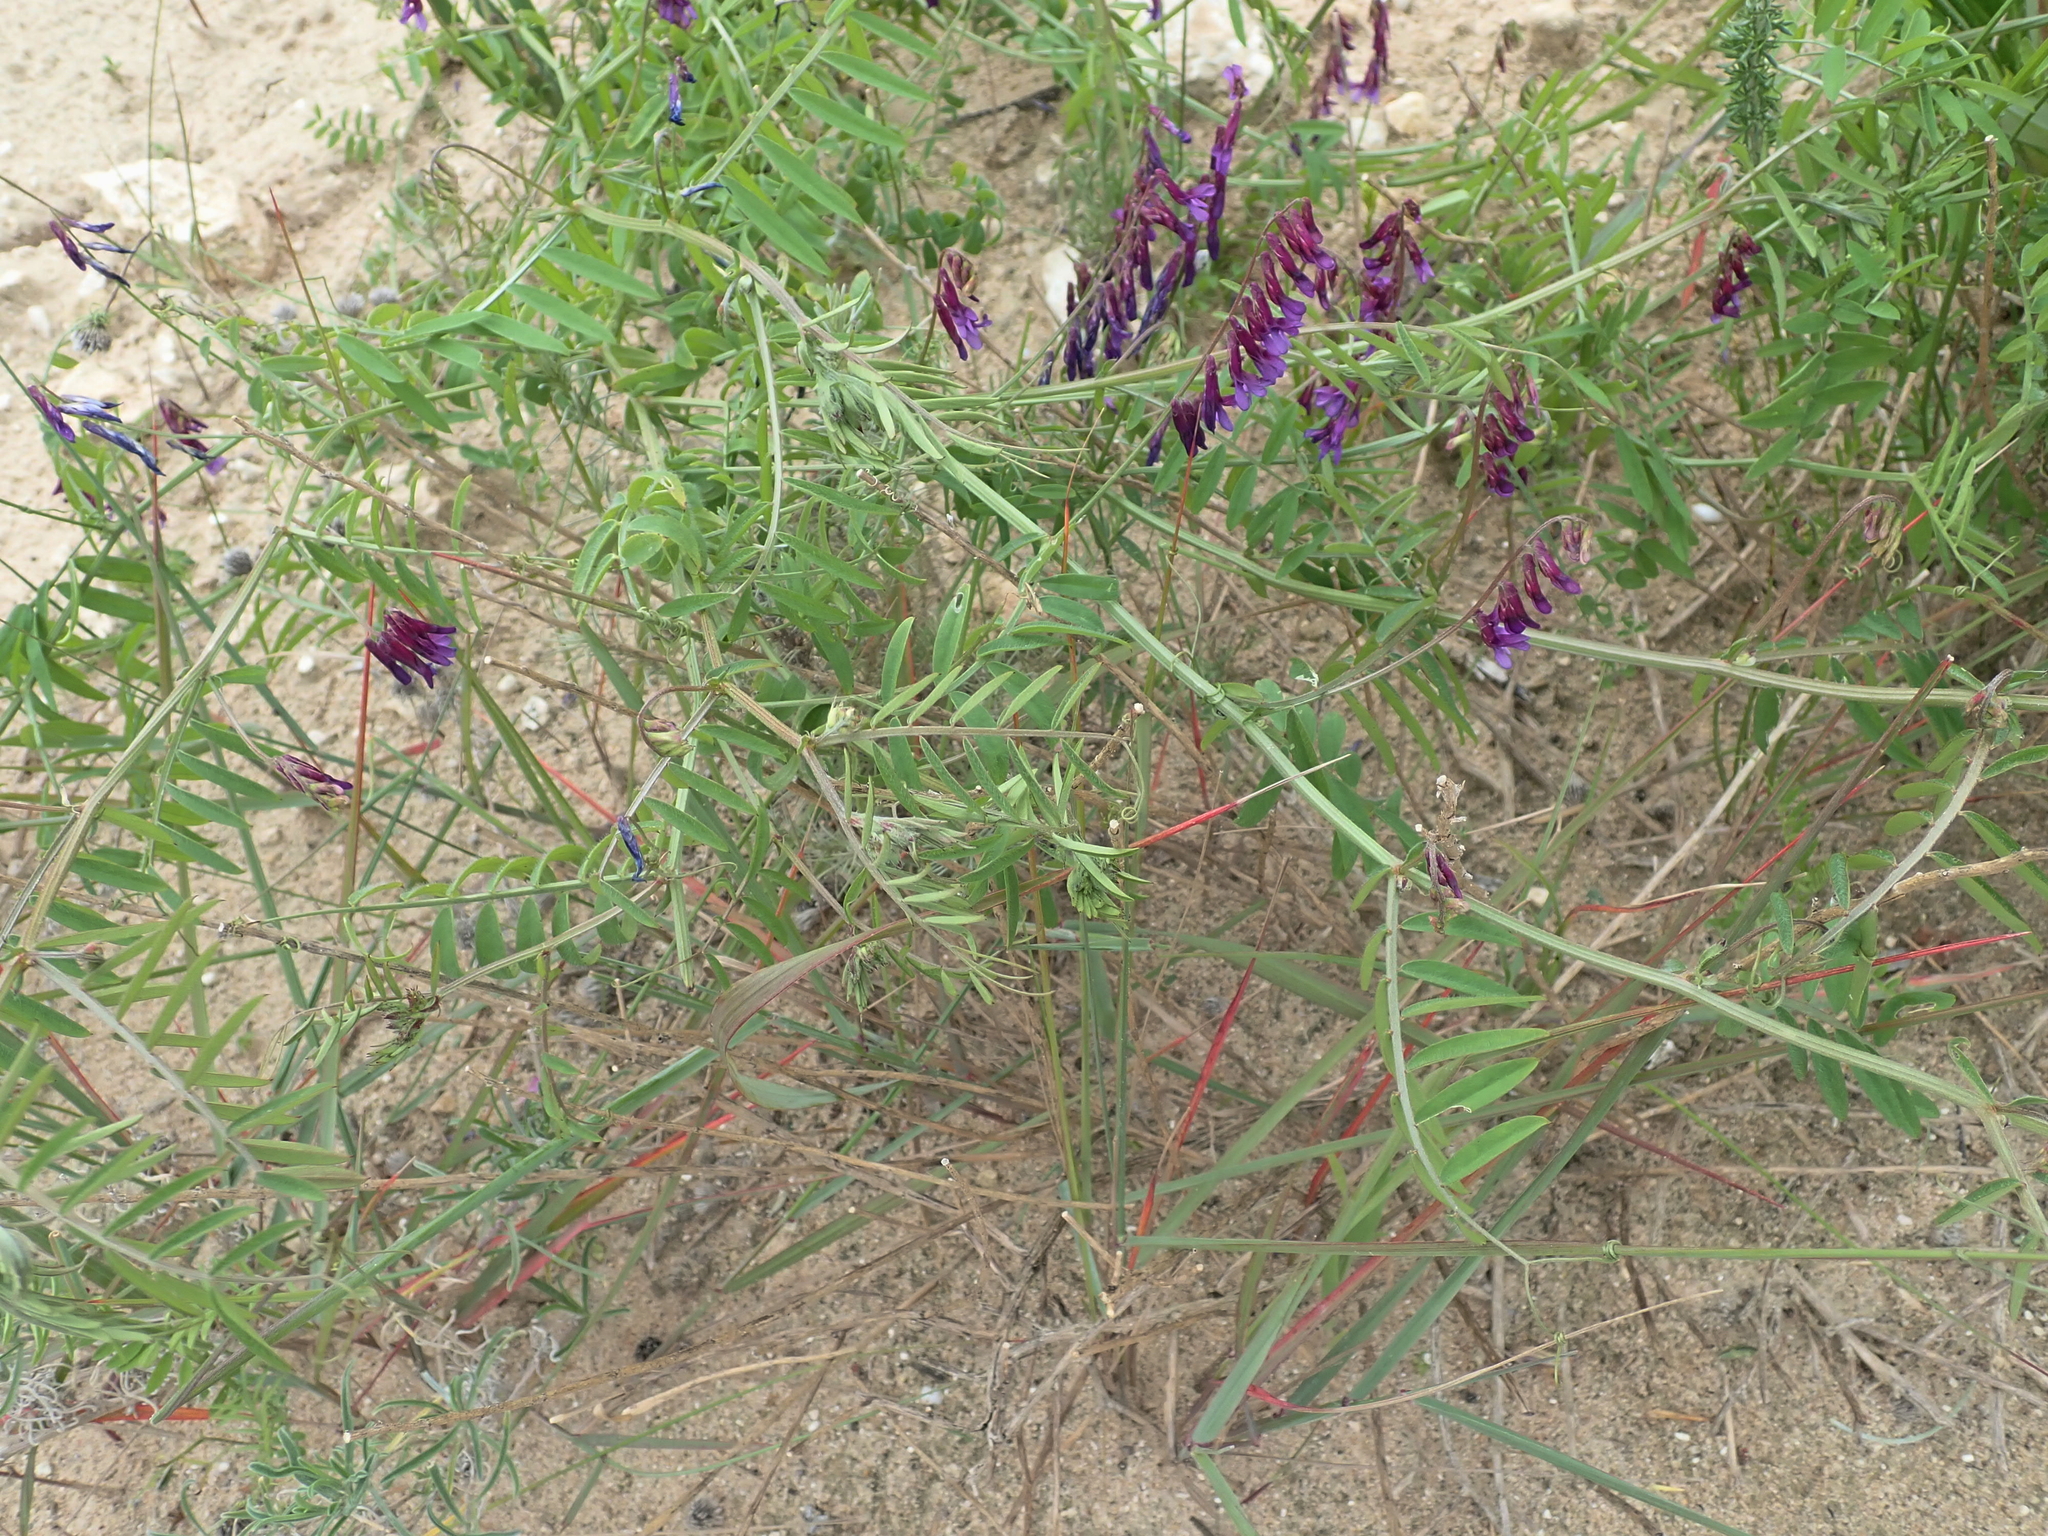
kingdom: Plantae
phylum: Tracheophyta
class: Magnoliopsida
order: Fabales
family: Fabaceae
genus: Vicia
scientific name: Vicia eriocarpa
